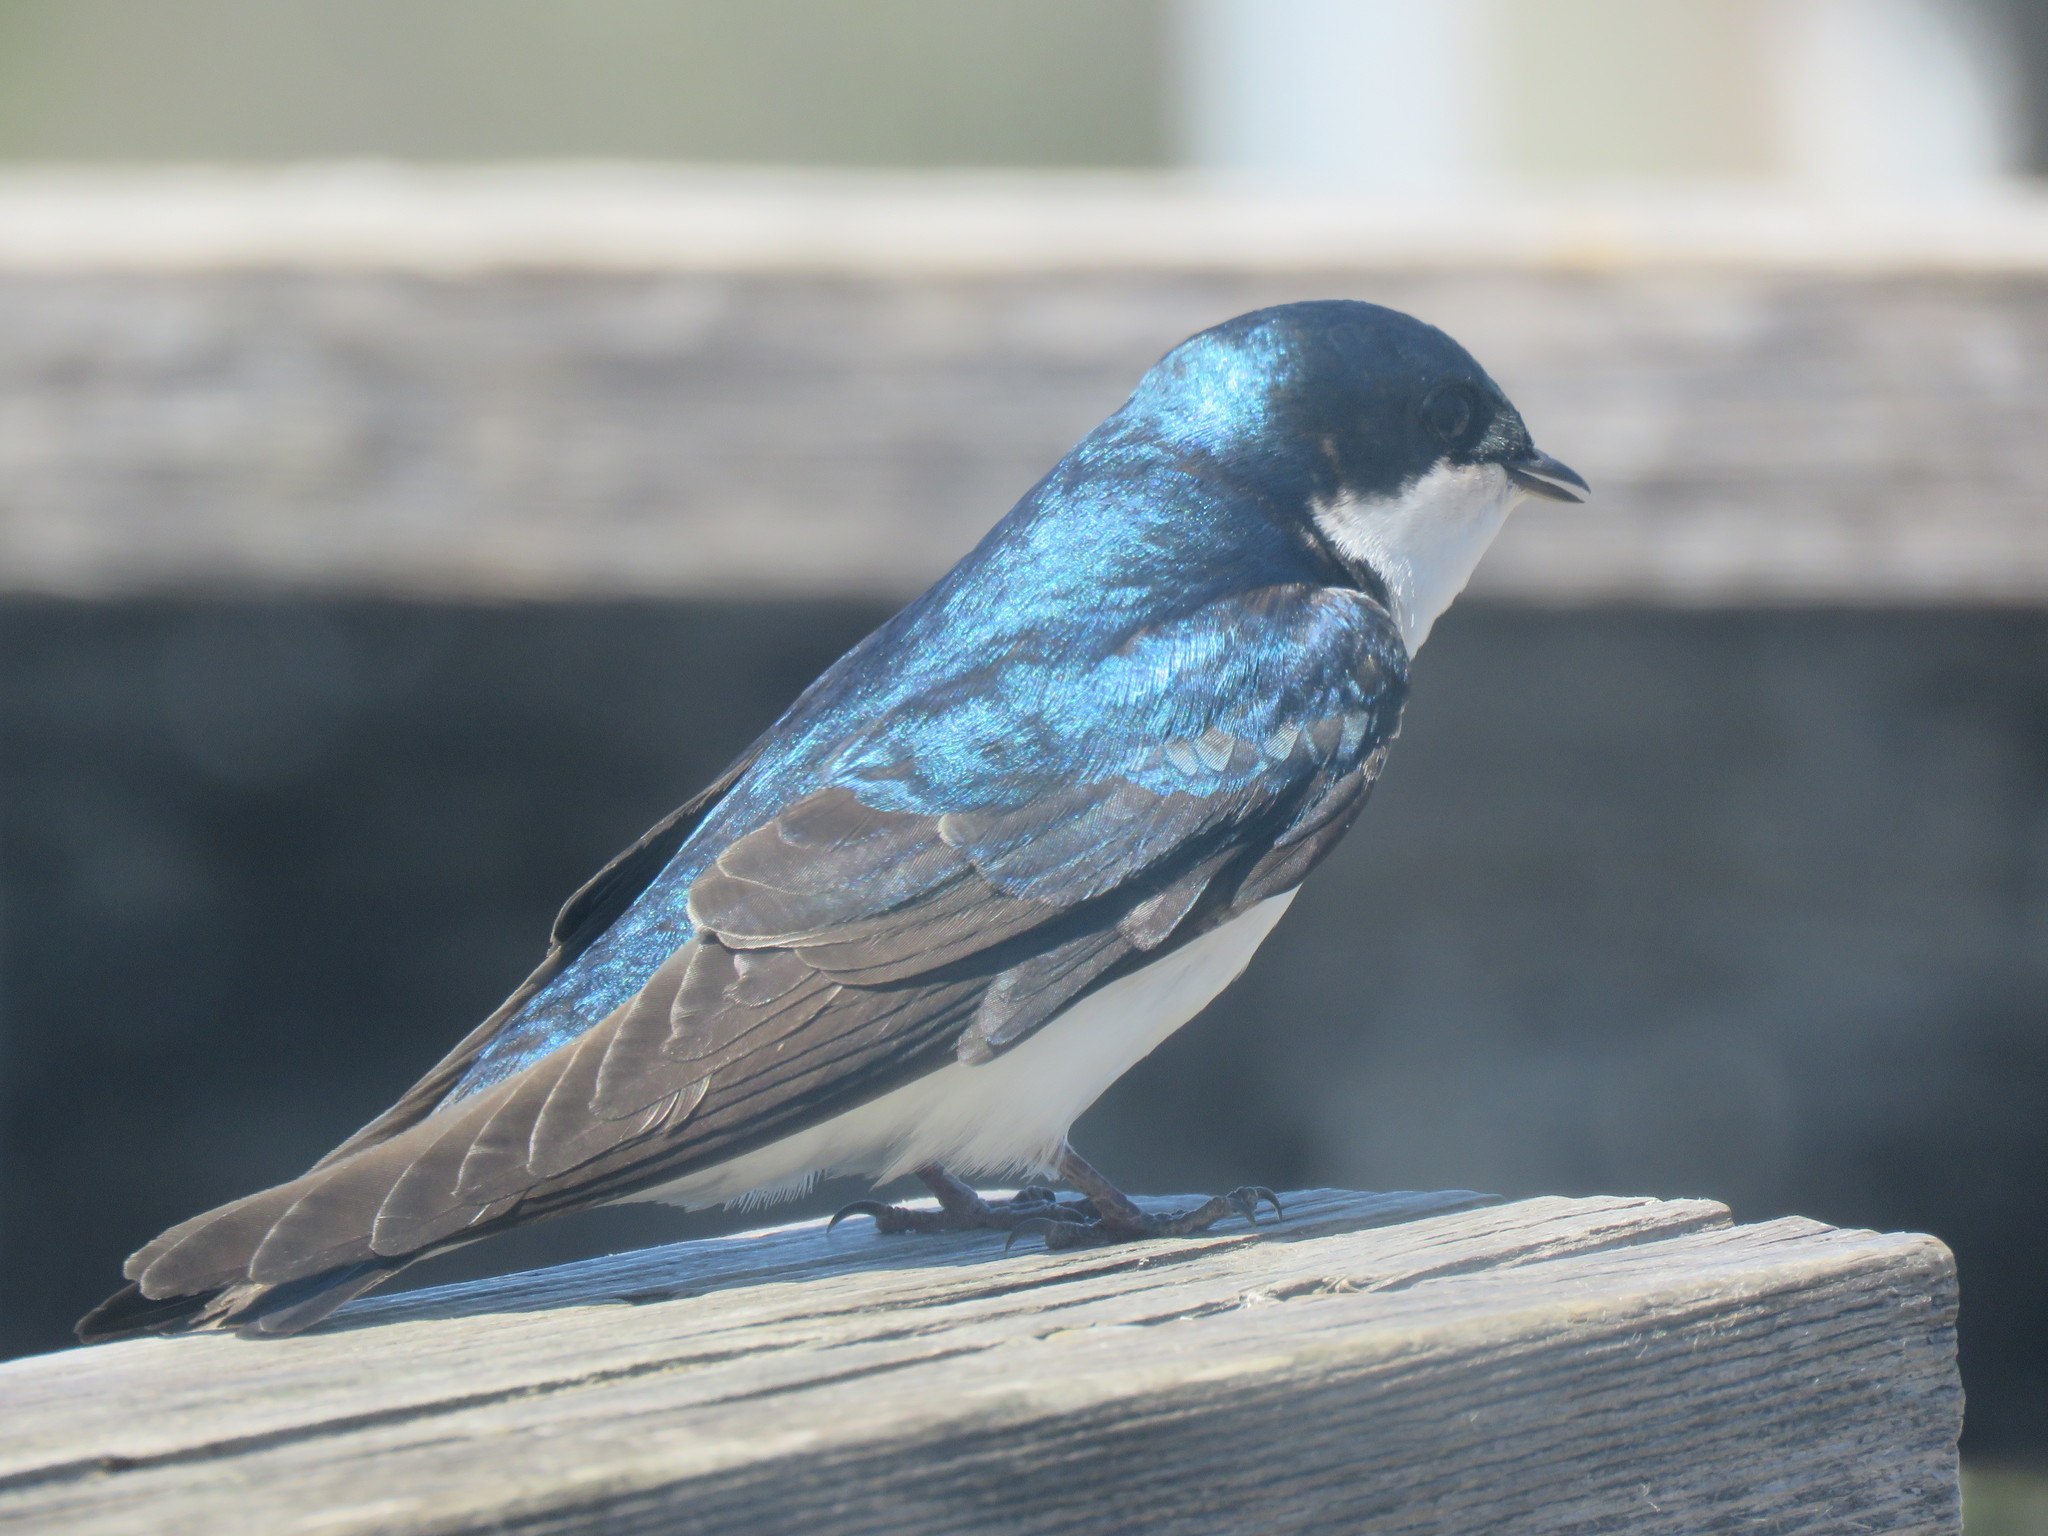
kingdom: Animalia
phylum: Chordata
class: Aves
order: Passeriformes
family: Hirundinidae
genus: Tachycineta
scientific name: Tachycineta bicolor
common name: Tree swallow
